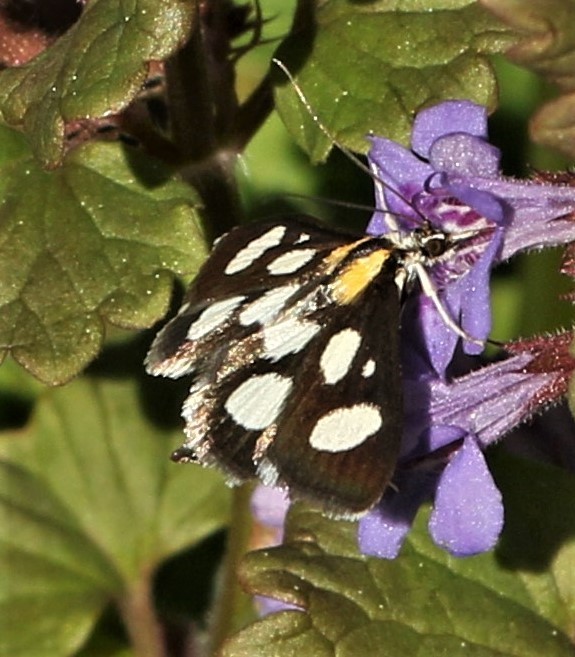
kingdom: Animalia
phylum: Arthropoda
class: Insecta
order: Lepidoptera
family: Crambidae
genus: Anania
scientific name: Anania funebris
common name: White-spotted sable moth
